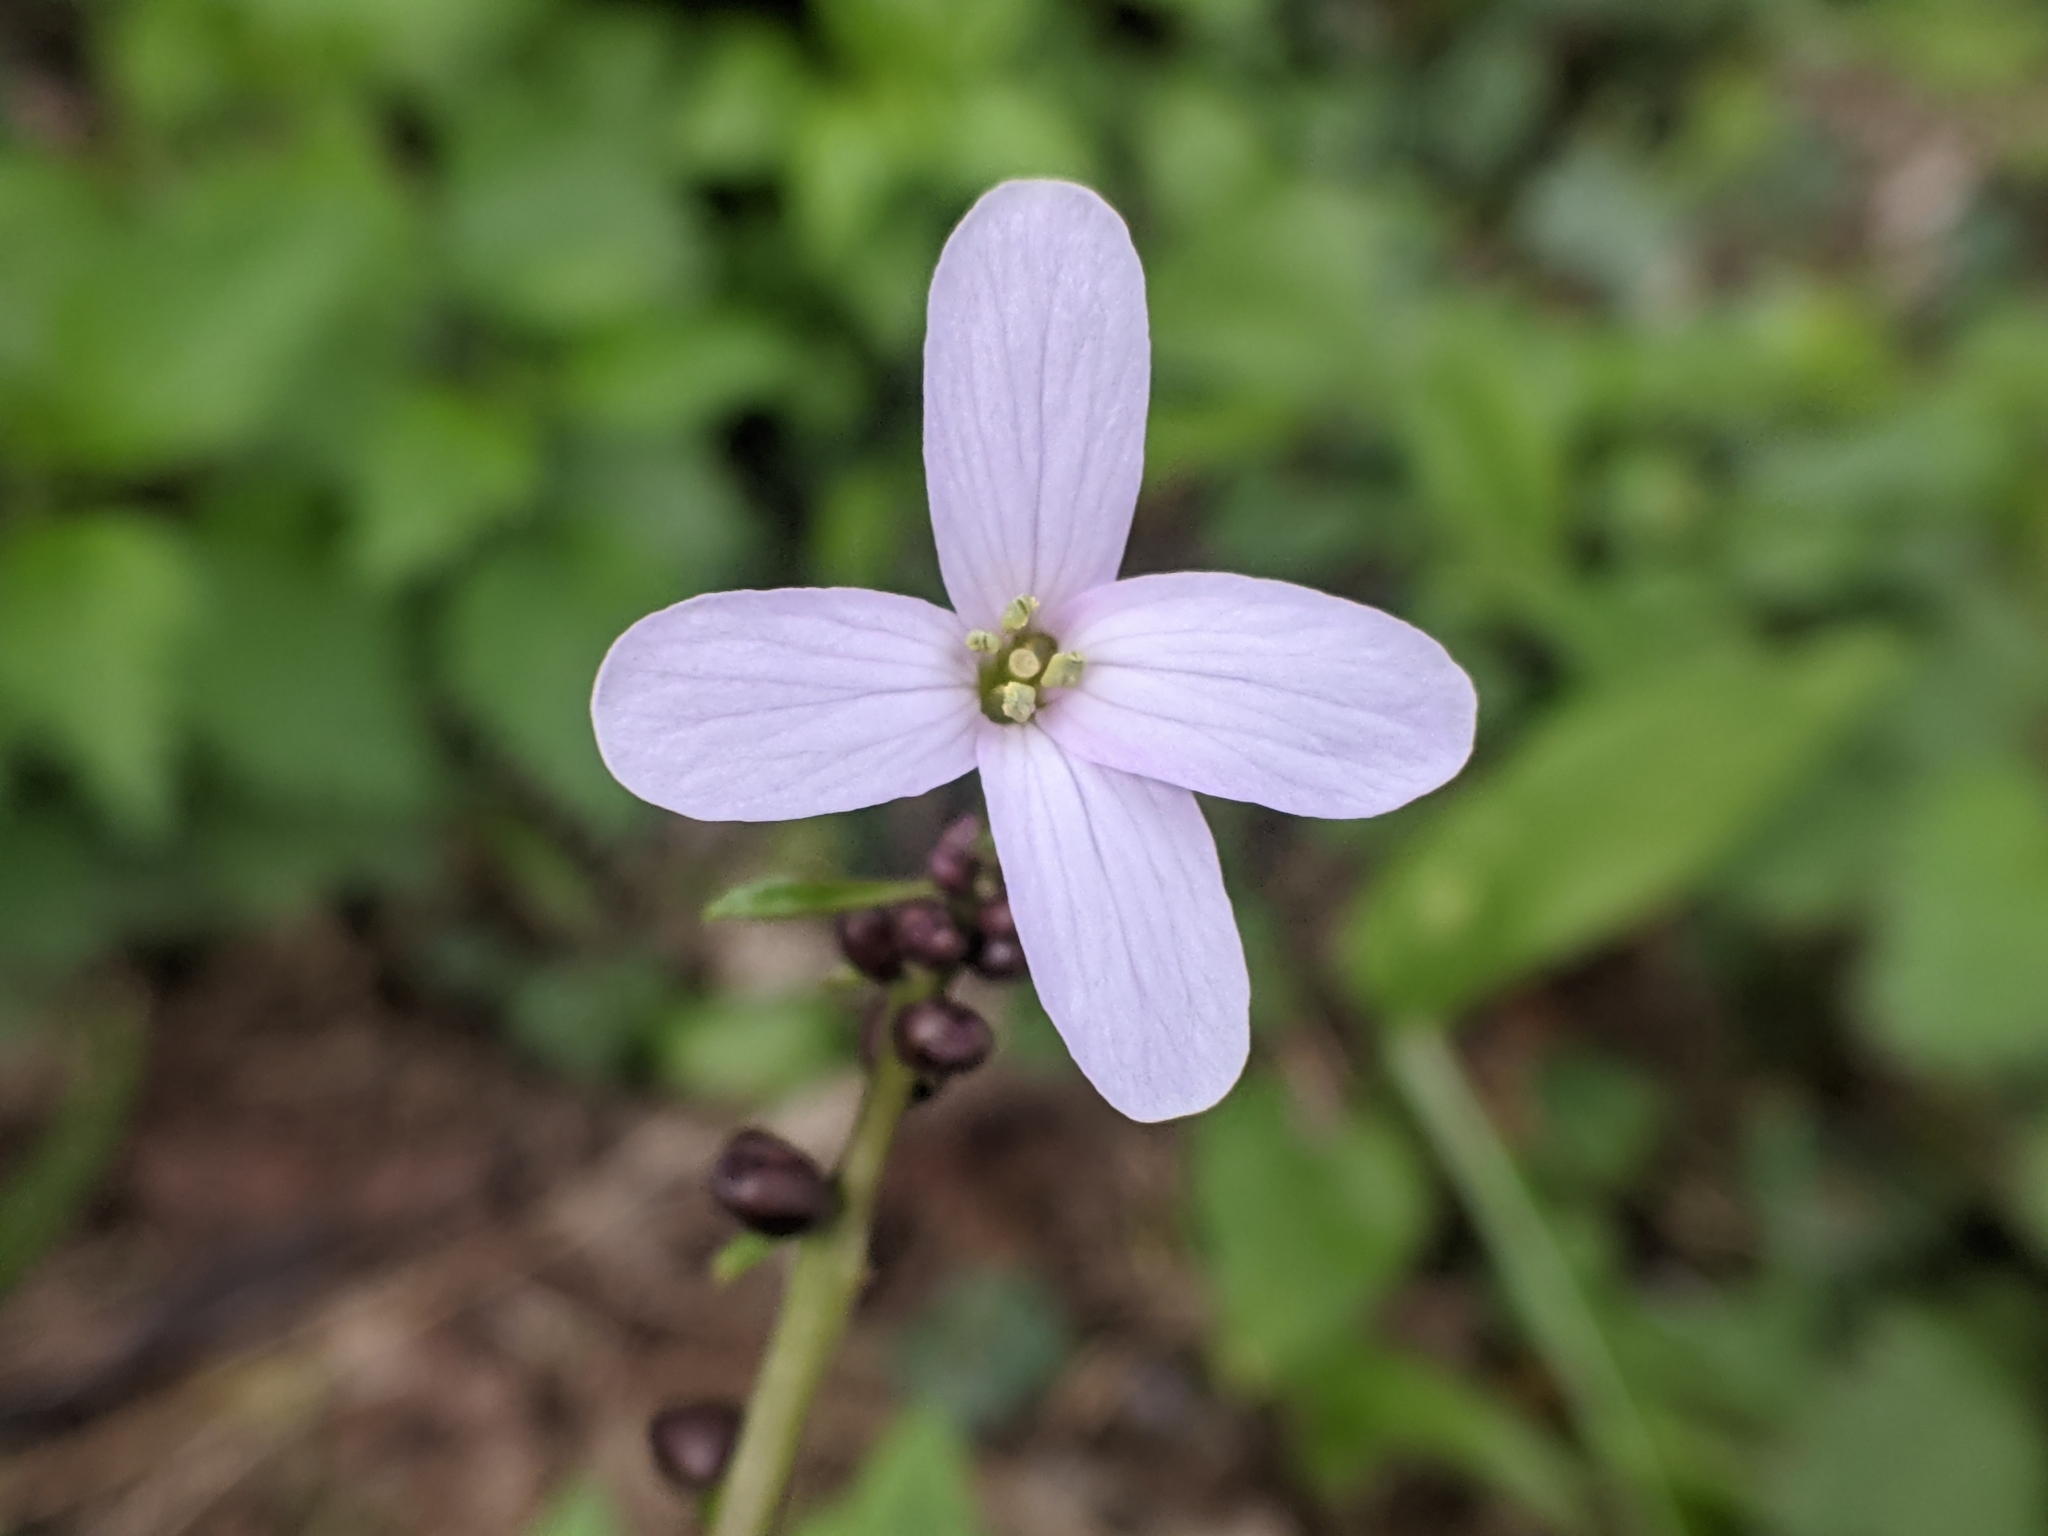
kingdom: Plantae
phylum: Tracheophyta
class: Magnoliopsida
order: Brassicales
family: Brassicaceae
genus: Cardamine
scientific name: Cardamine bulbifera
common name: Coralroot bittercress
